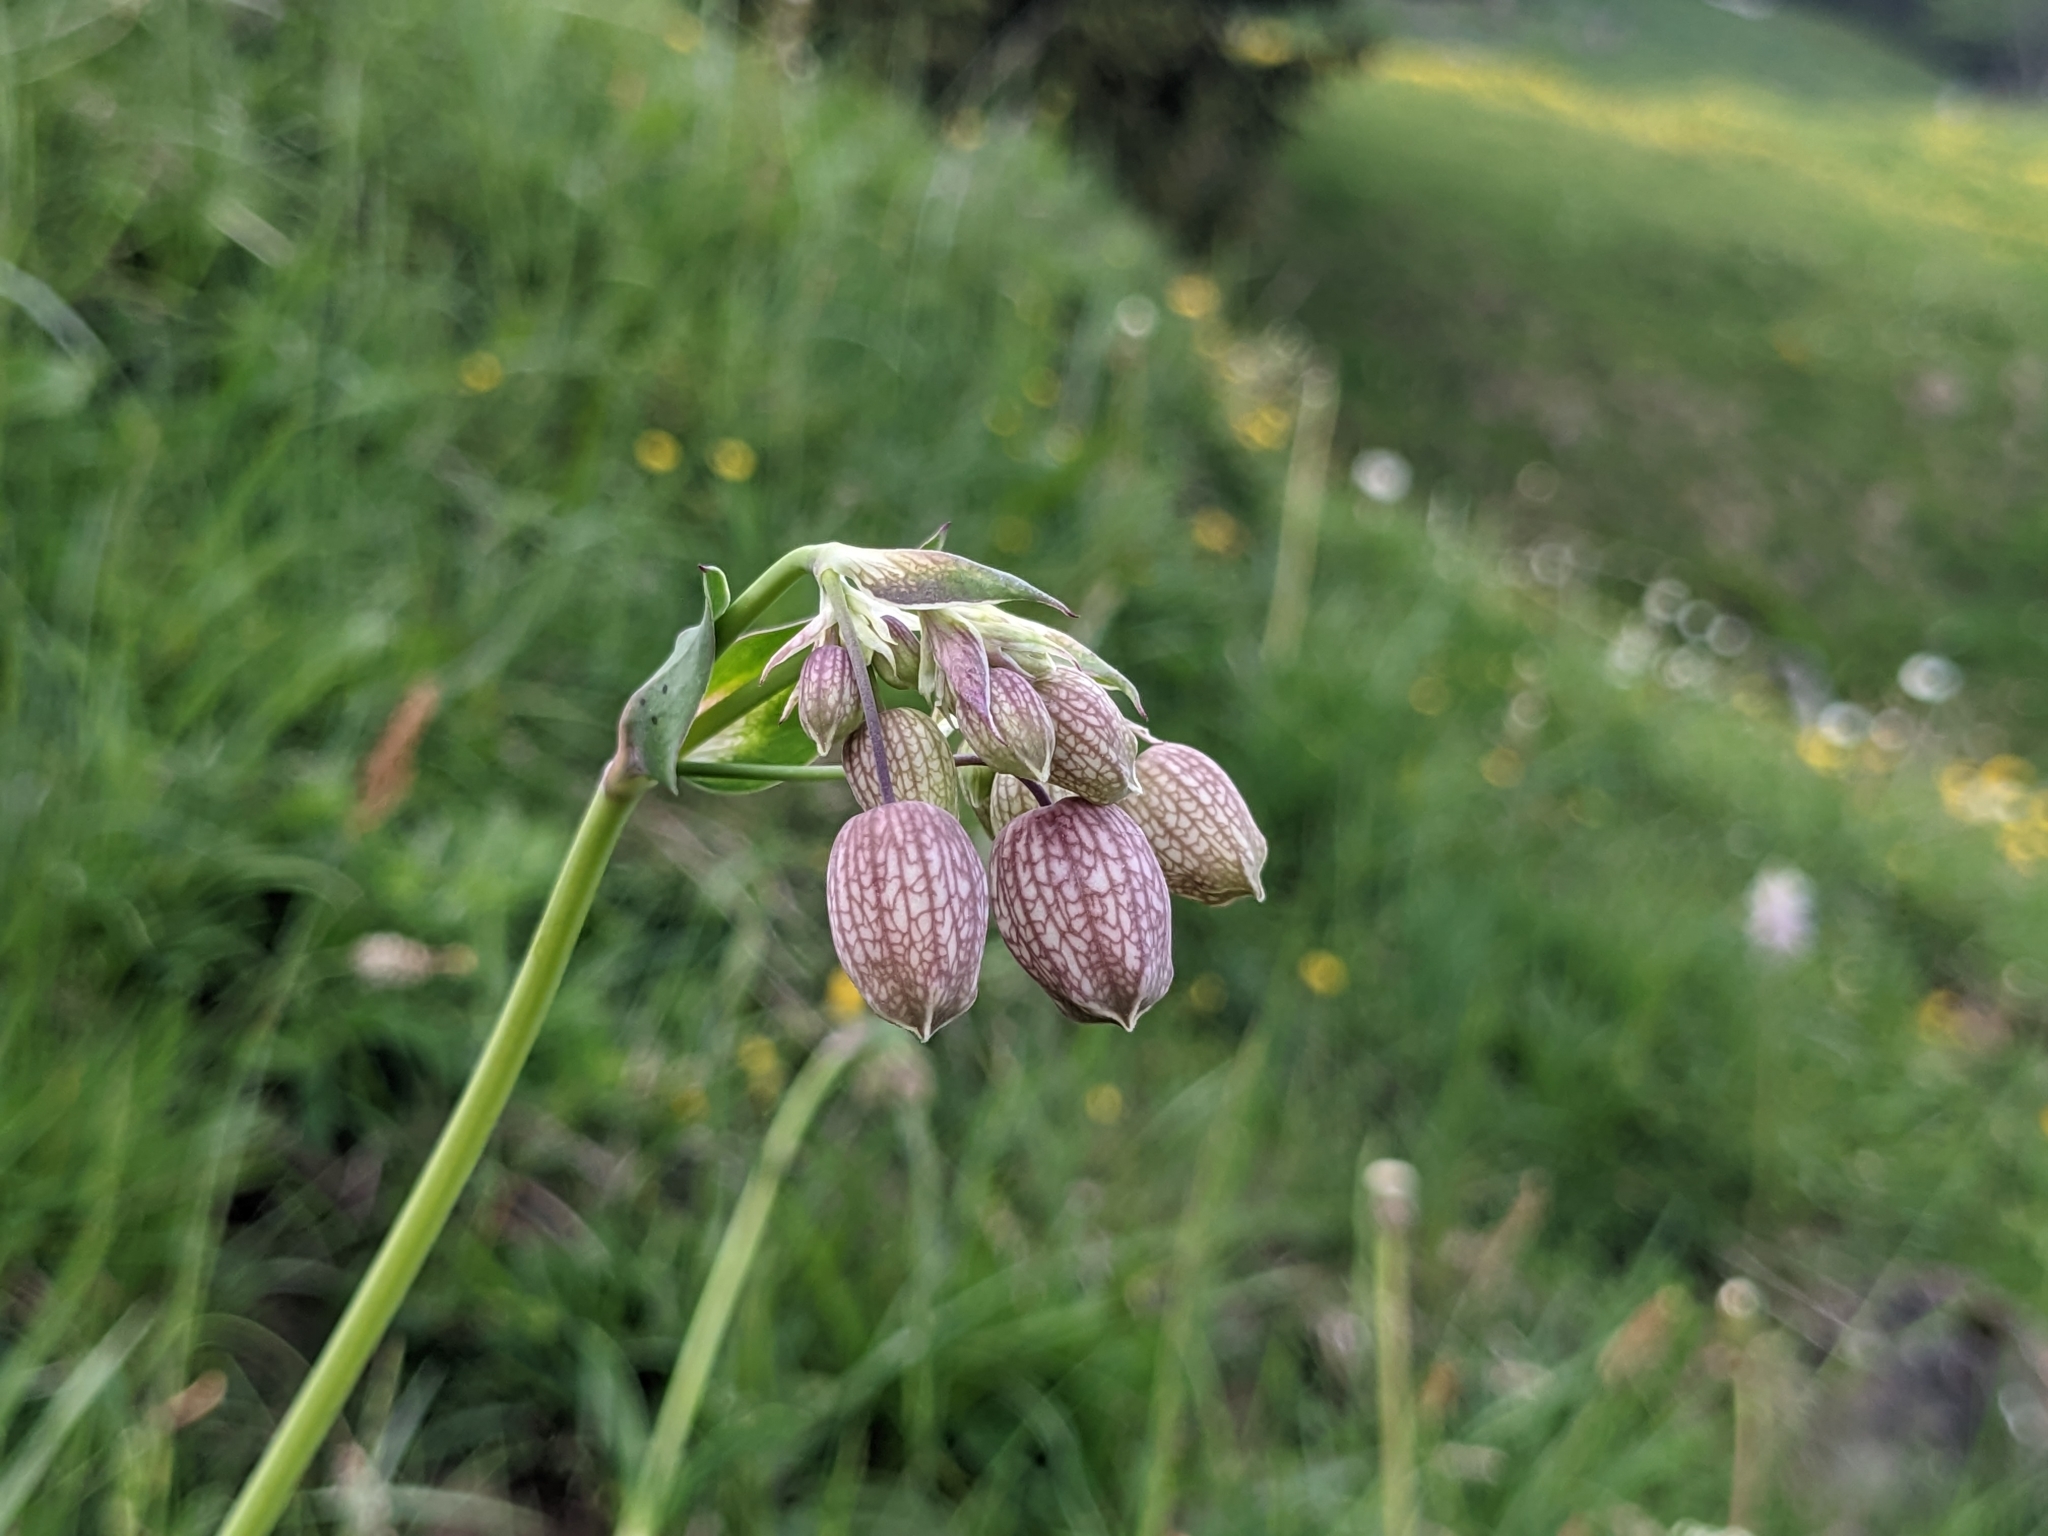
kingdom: Plantae
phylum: Tracheophyta
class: Magnoliopsida
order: Caryophyllales
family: Caryophyllaceae
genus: Silene
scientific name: Silene vulgaris
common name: Bladder campion
